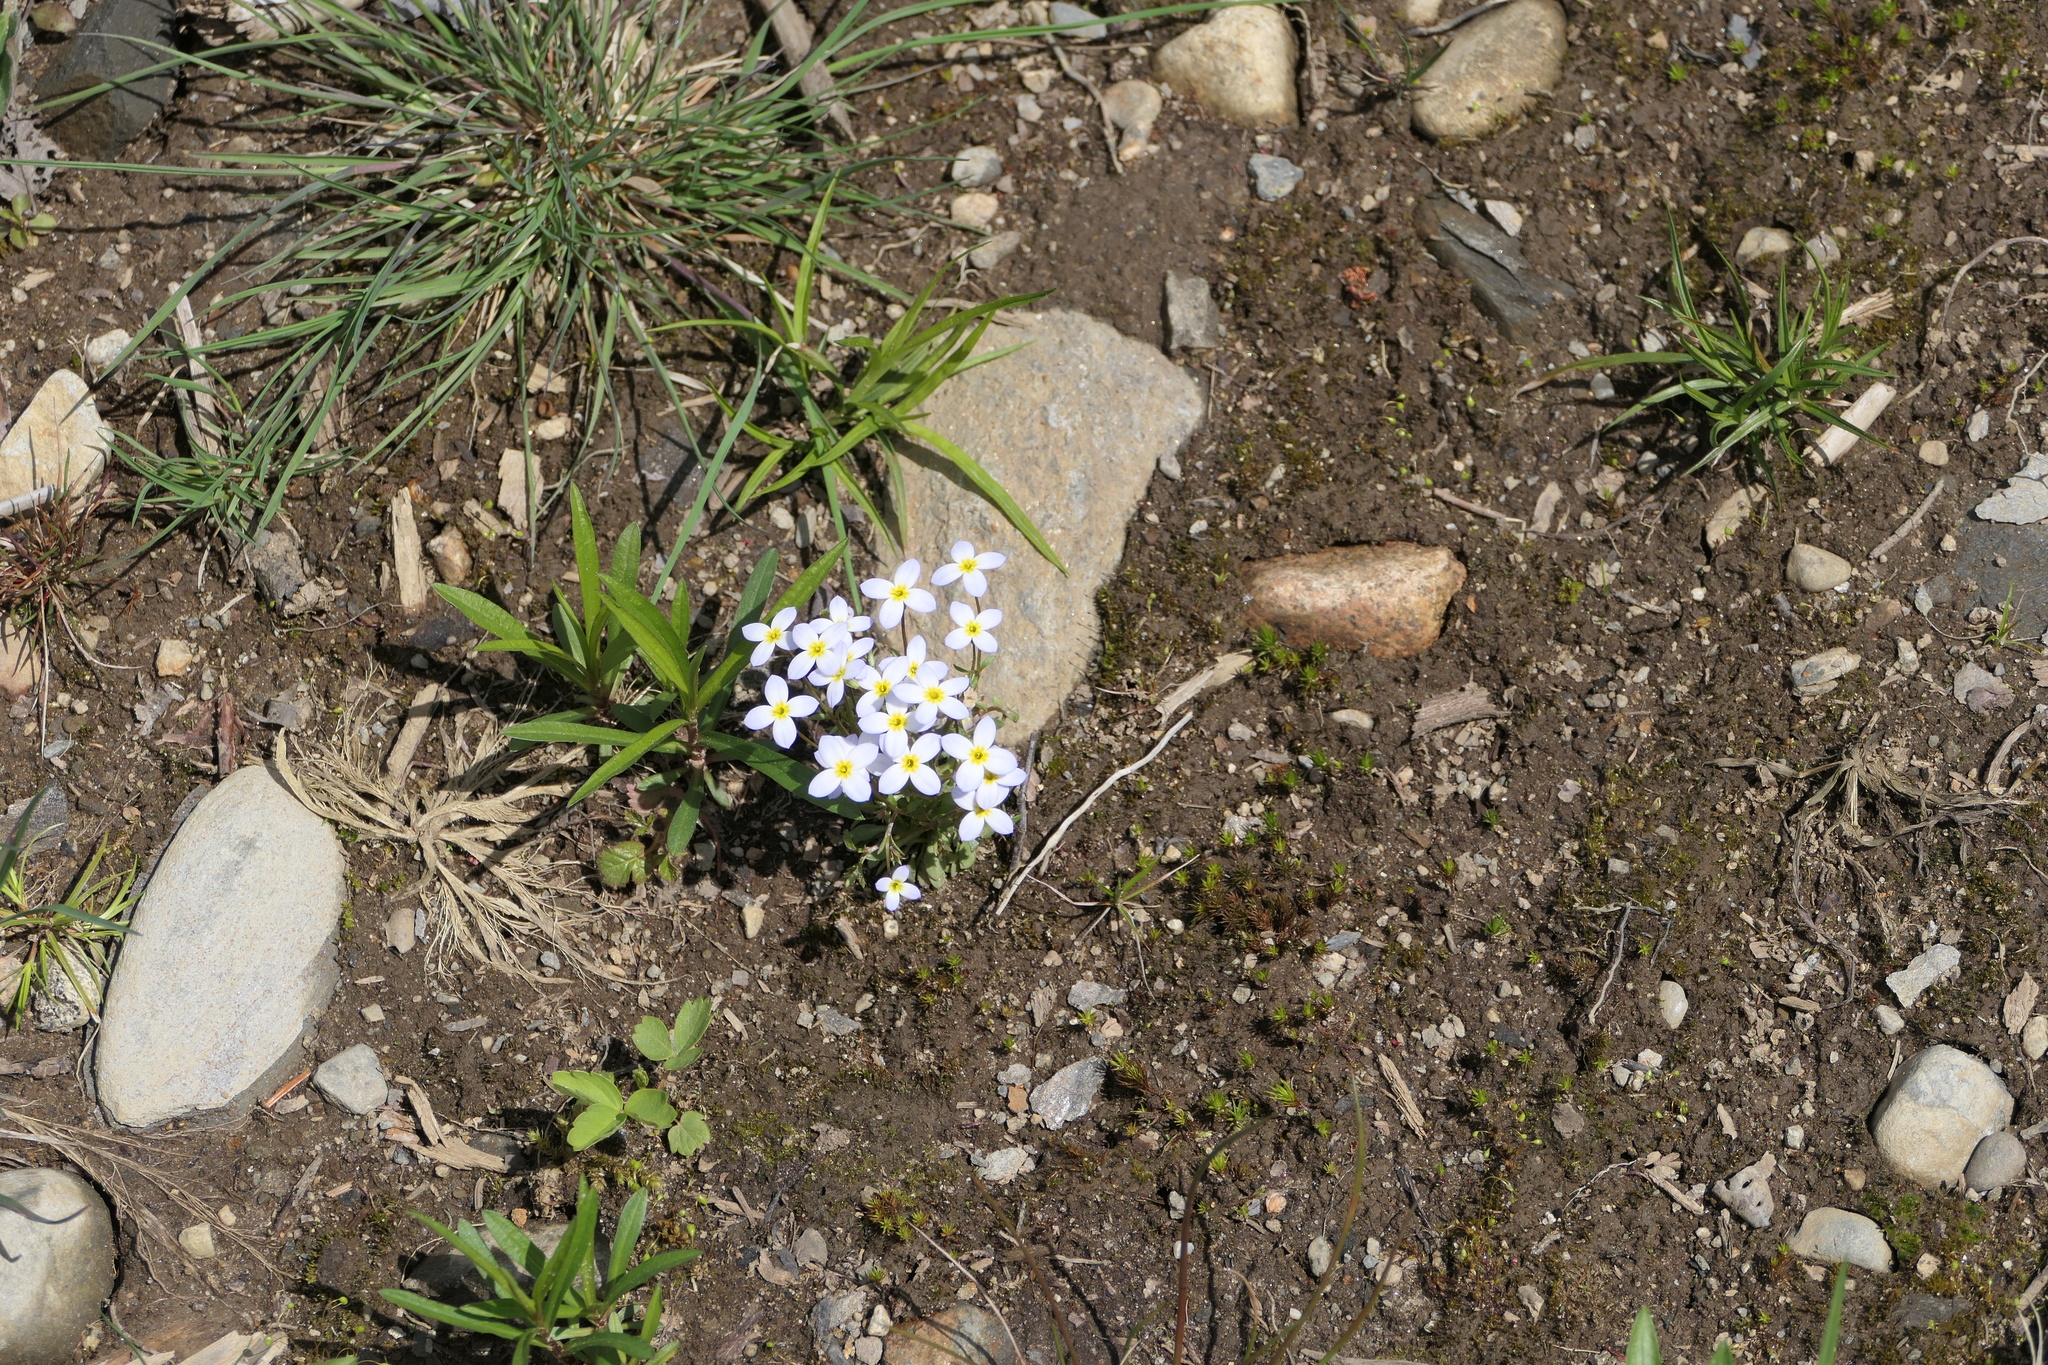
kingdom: Plantae
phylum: Tracheophyta
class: Magnoliopsida
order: Gentianales
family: Rubiaceae
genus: Houstonia
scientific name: Houstonia caerulea
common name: Bluets
